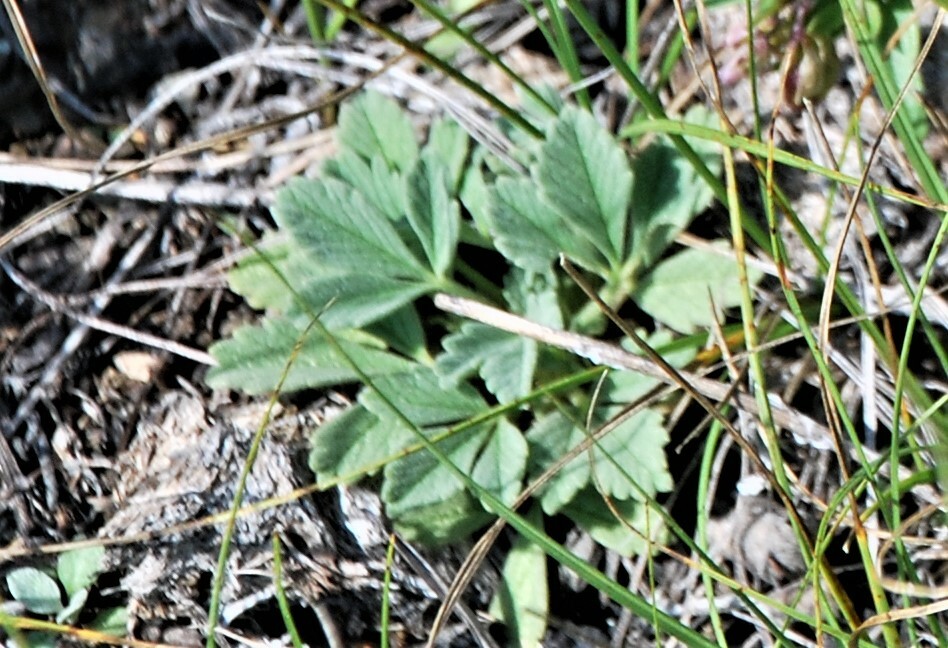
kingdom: Plantae
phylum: Tracheophyta
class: Magnoliopsida
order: Rosales
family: Rosaceae
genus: Potentilla
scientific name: Potentilla acaulis
